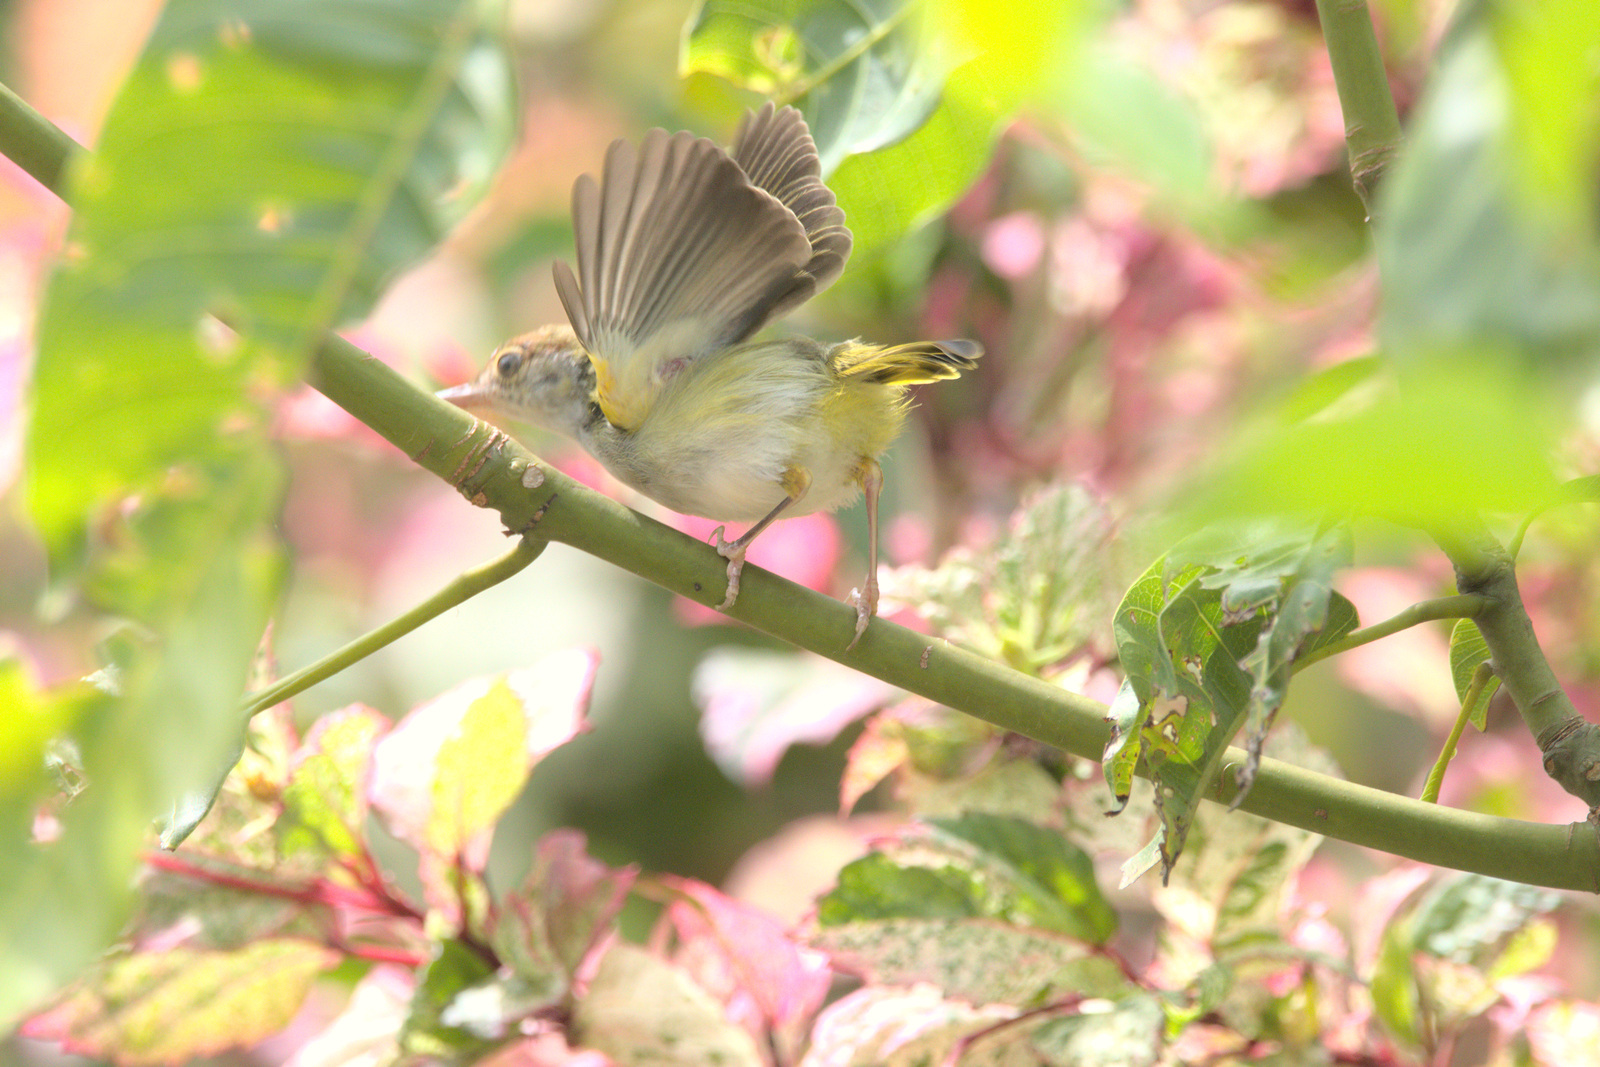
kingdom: Animalia
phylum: Chordata
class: Aves
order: Passeriformes
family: Cisticolidae
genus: Orthotomus
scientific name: Orthotomus atrogularis
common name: Dark-necked tailorbird
